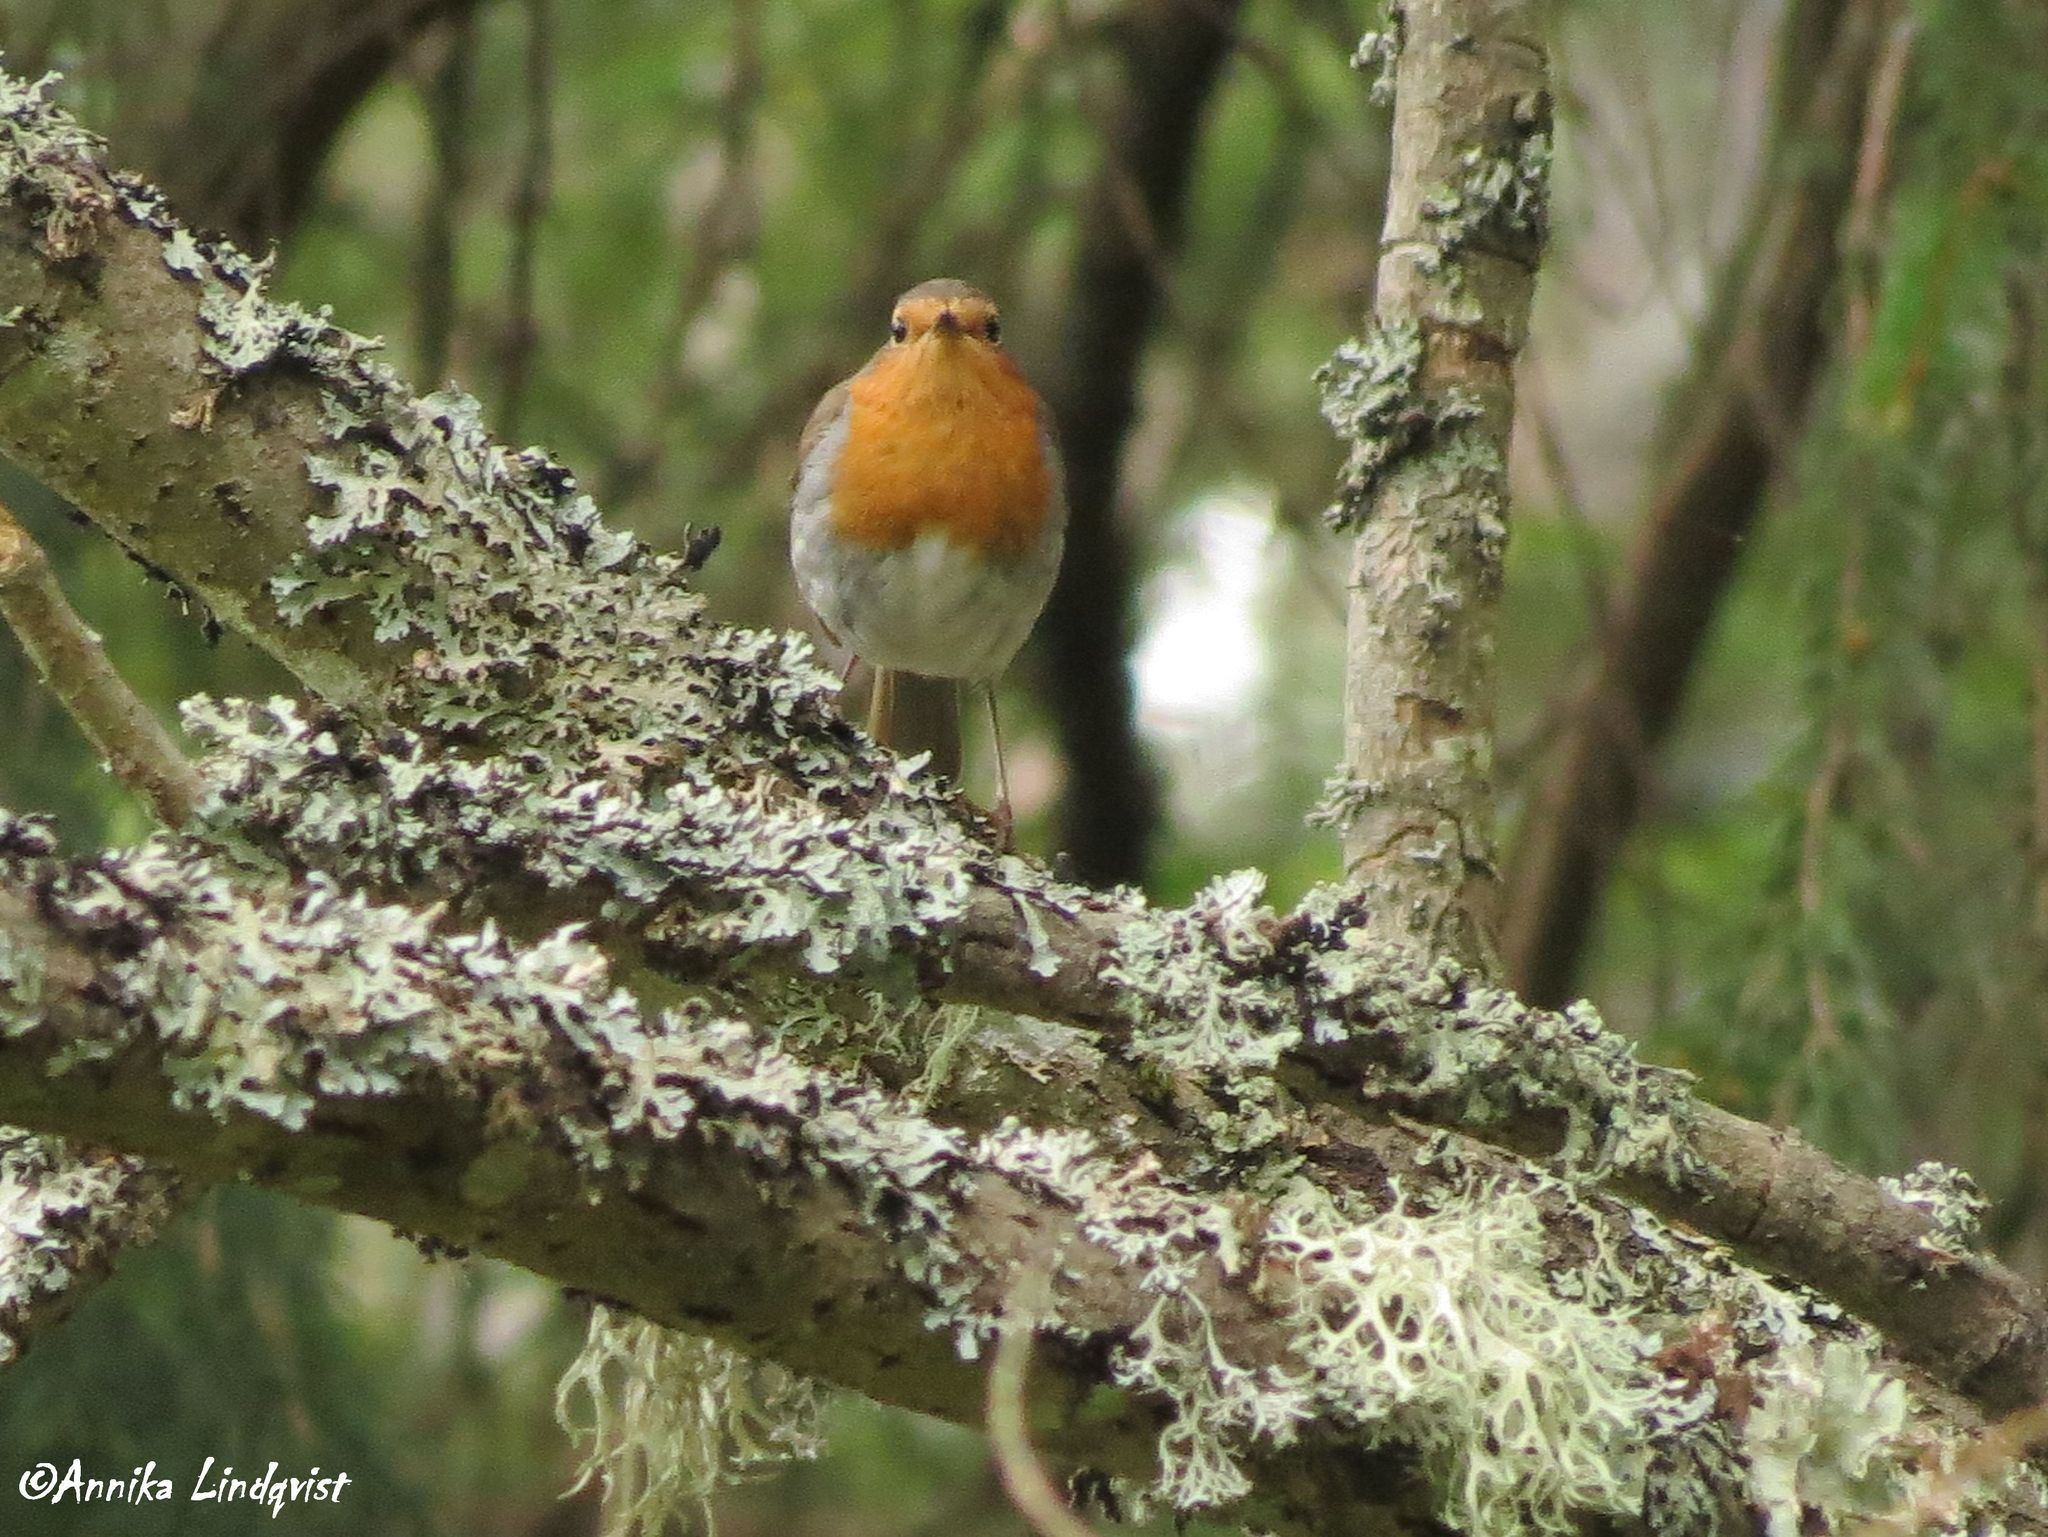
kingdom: Animalia
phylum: Chordata
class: Aves
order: Passeriformes
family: Muscicapidae
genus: Erithacus
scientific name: Erithacus rubecula
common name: European robin
